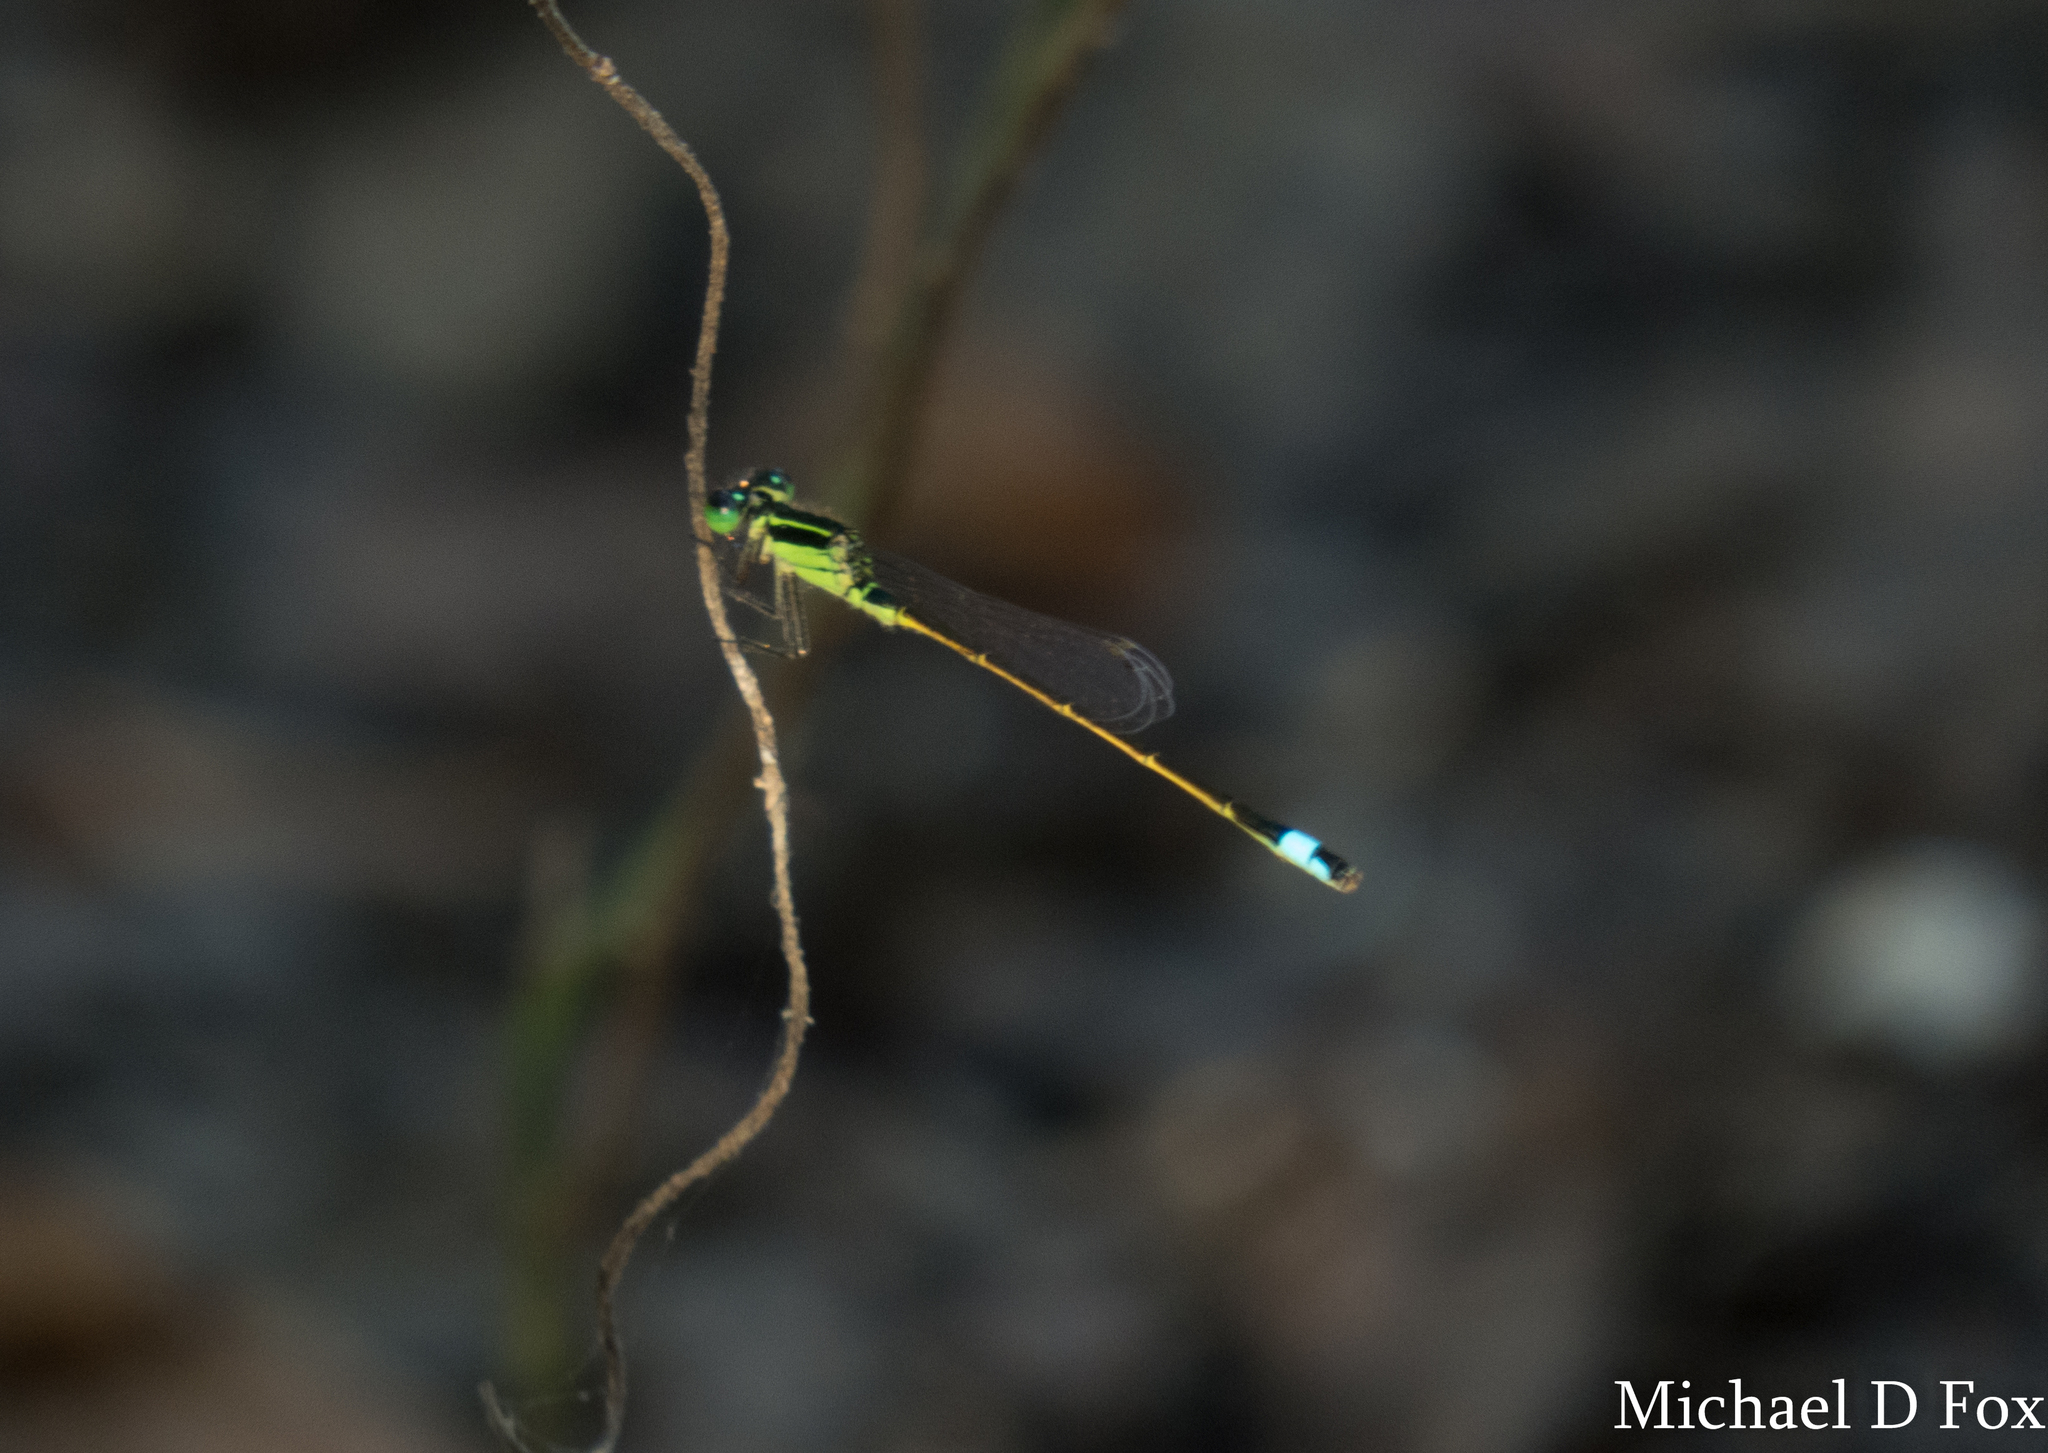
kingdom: Animalia
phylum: Arthropoda
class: Insecta
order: Odonata
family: Coenagrionidae
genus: Ischnura
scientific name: Ischnura ramburii
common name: Rambur's forktail
